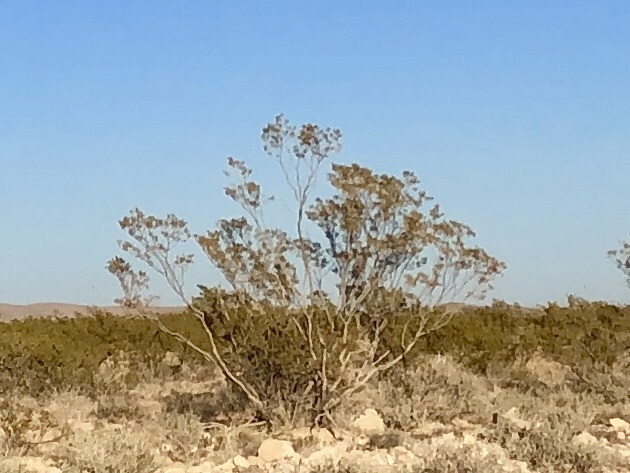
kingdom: Plantae
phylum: Tracheophyta
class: Magnoliopsida
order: Zygophyllales
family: Zygophyllaceae
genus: Larrea
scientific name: Larrea tridentata
